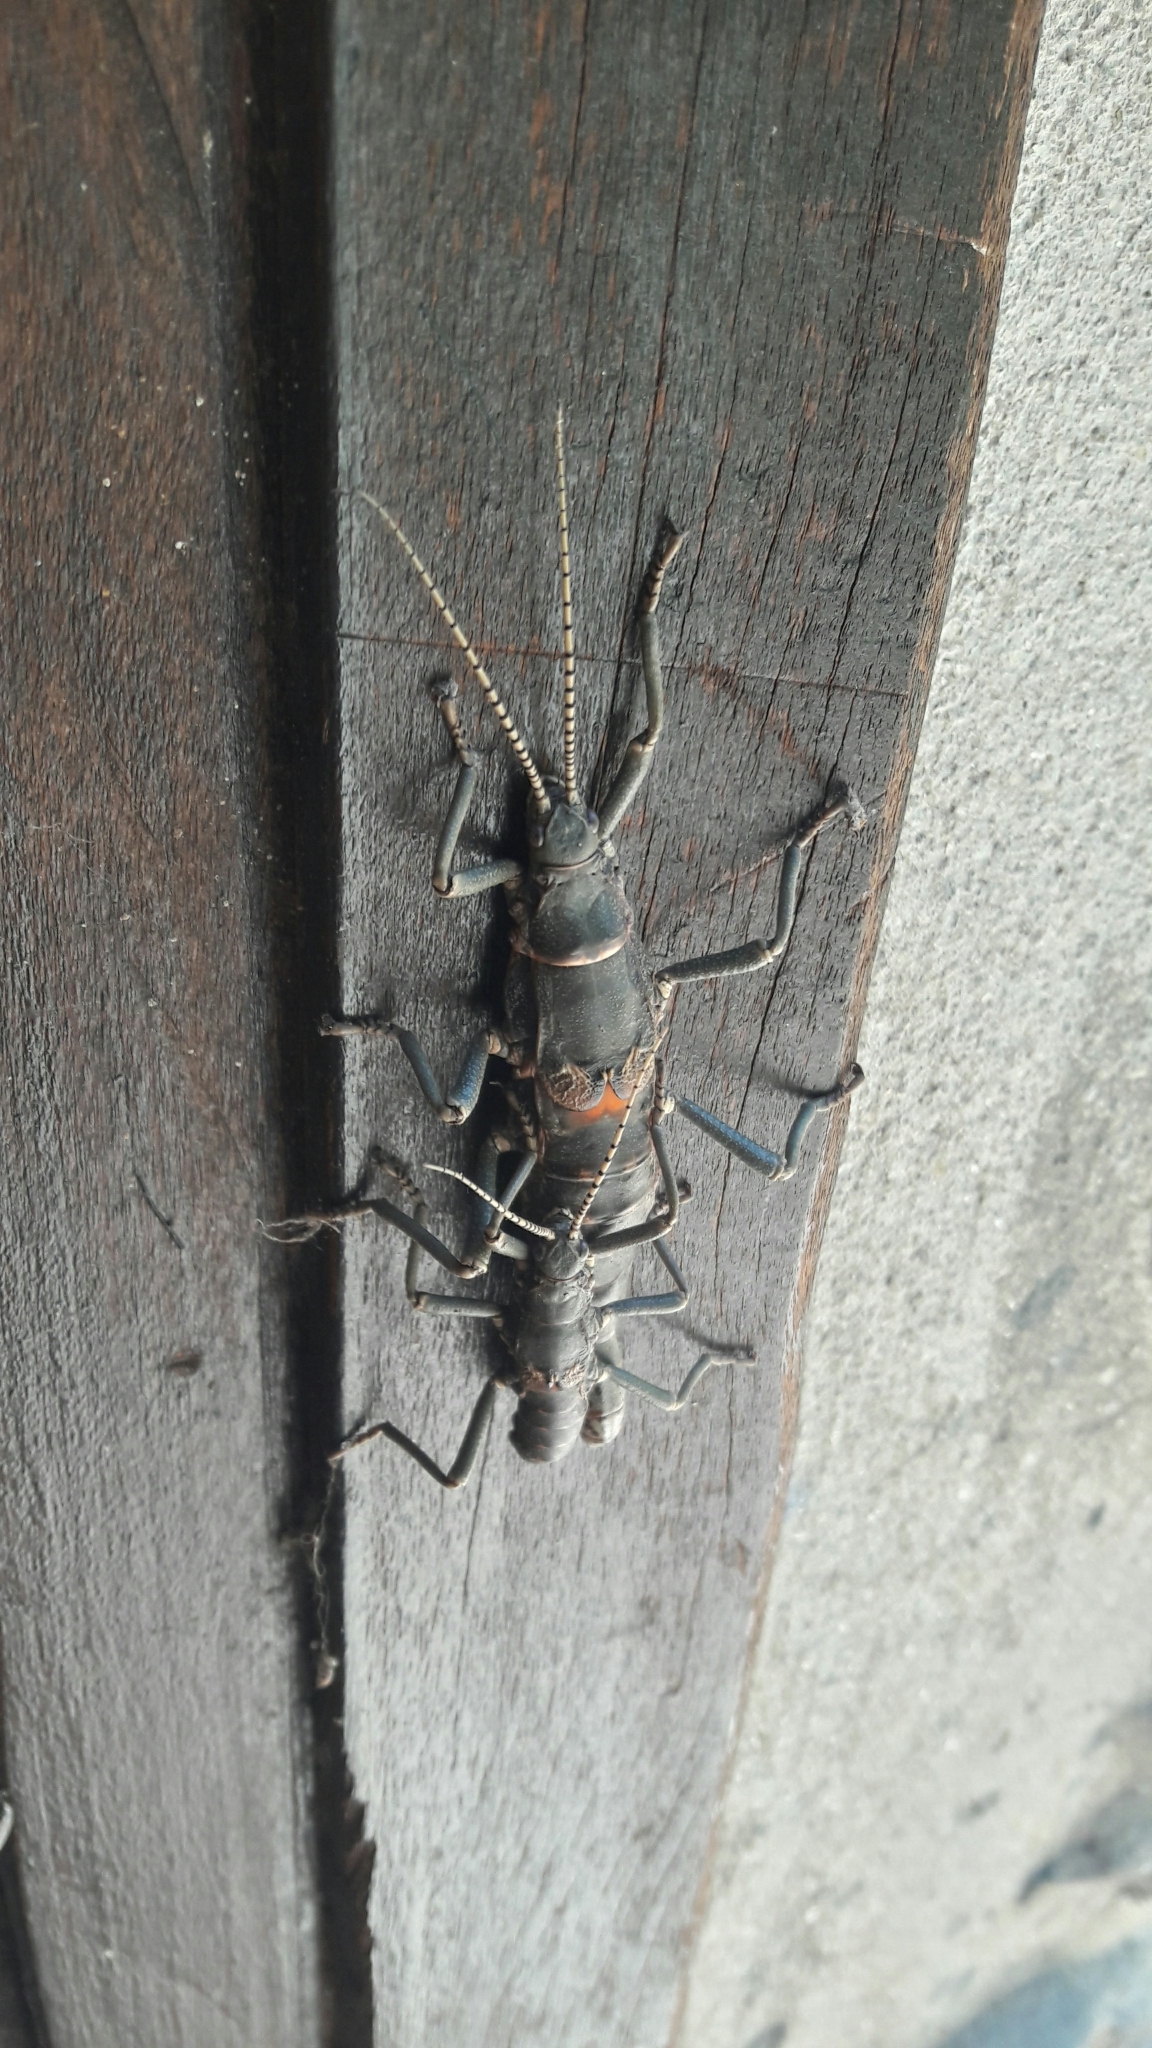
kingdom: Animalia
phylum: Arthropoda
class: Insecta
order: Phasmida
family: Agathemeridae
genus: Agathemera
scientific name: Agathemera luteola
